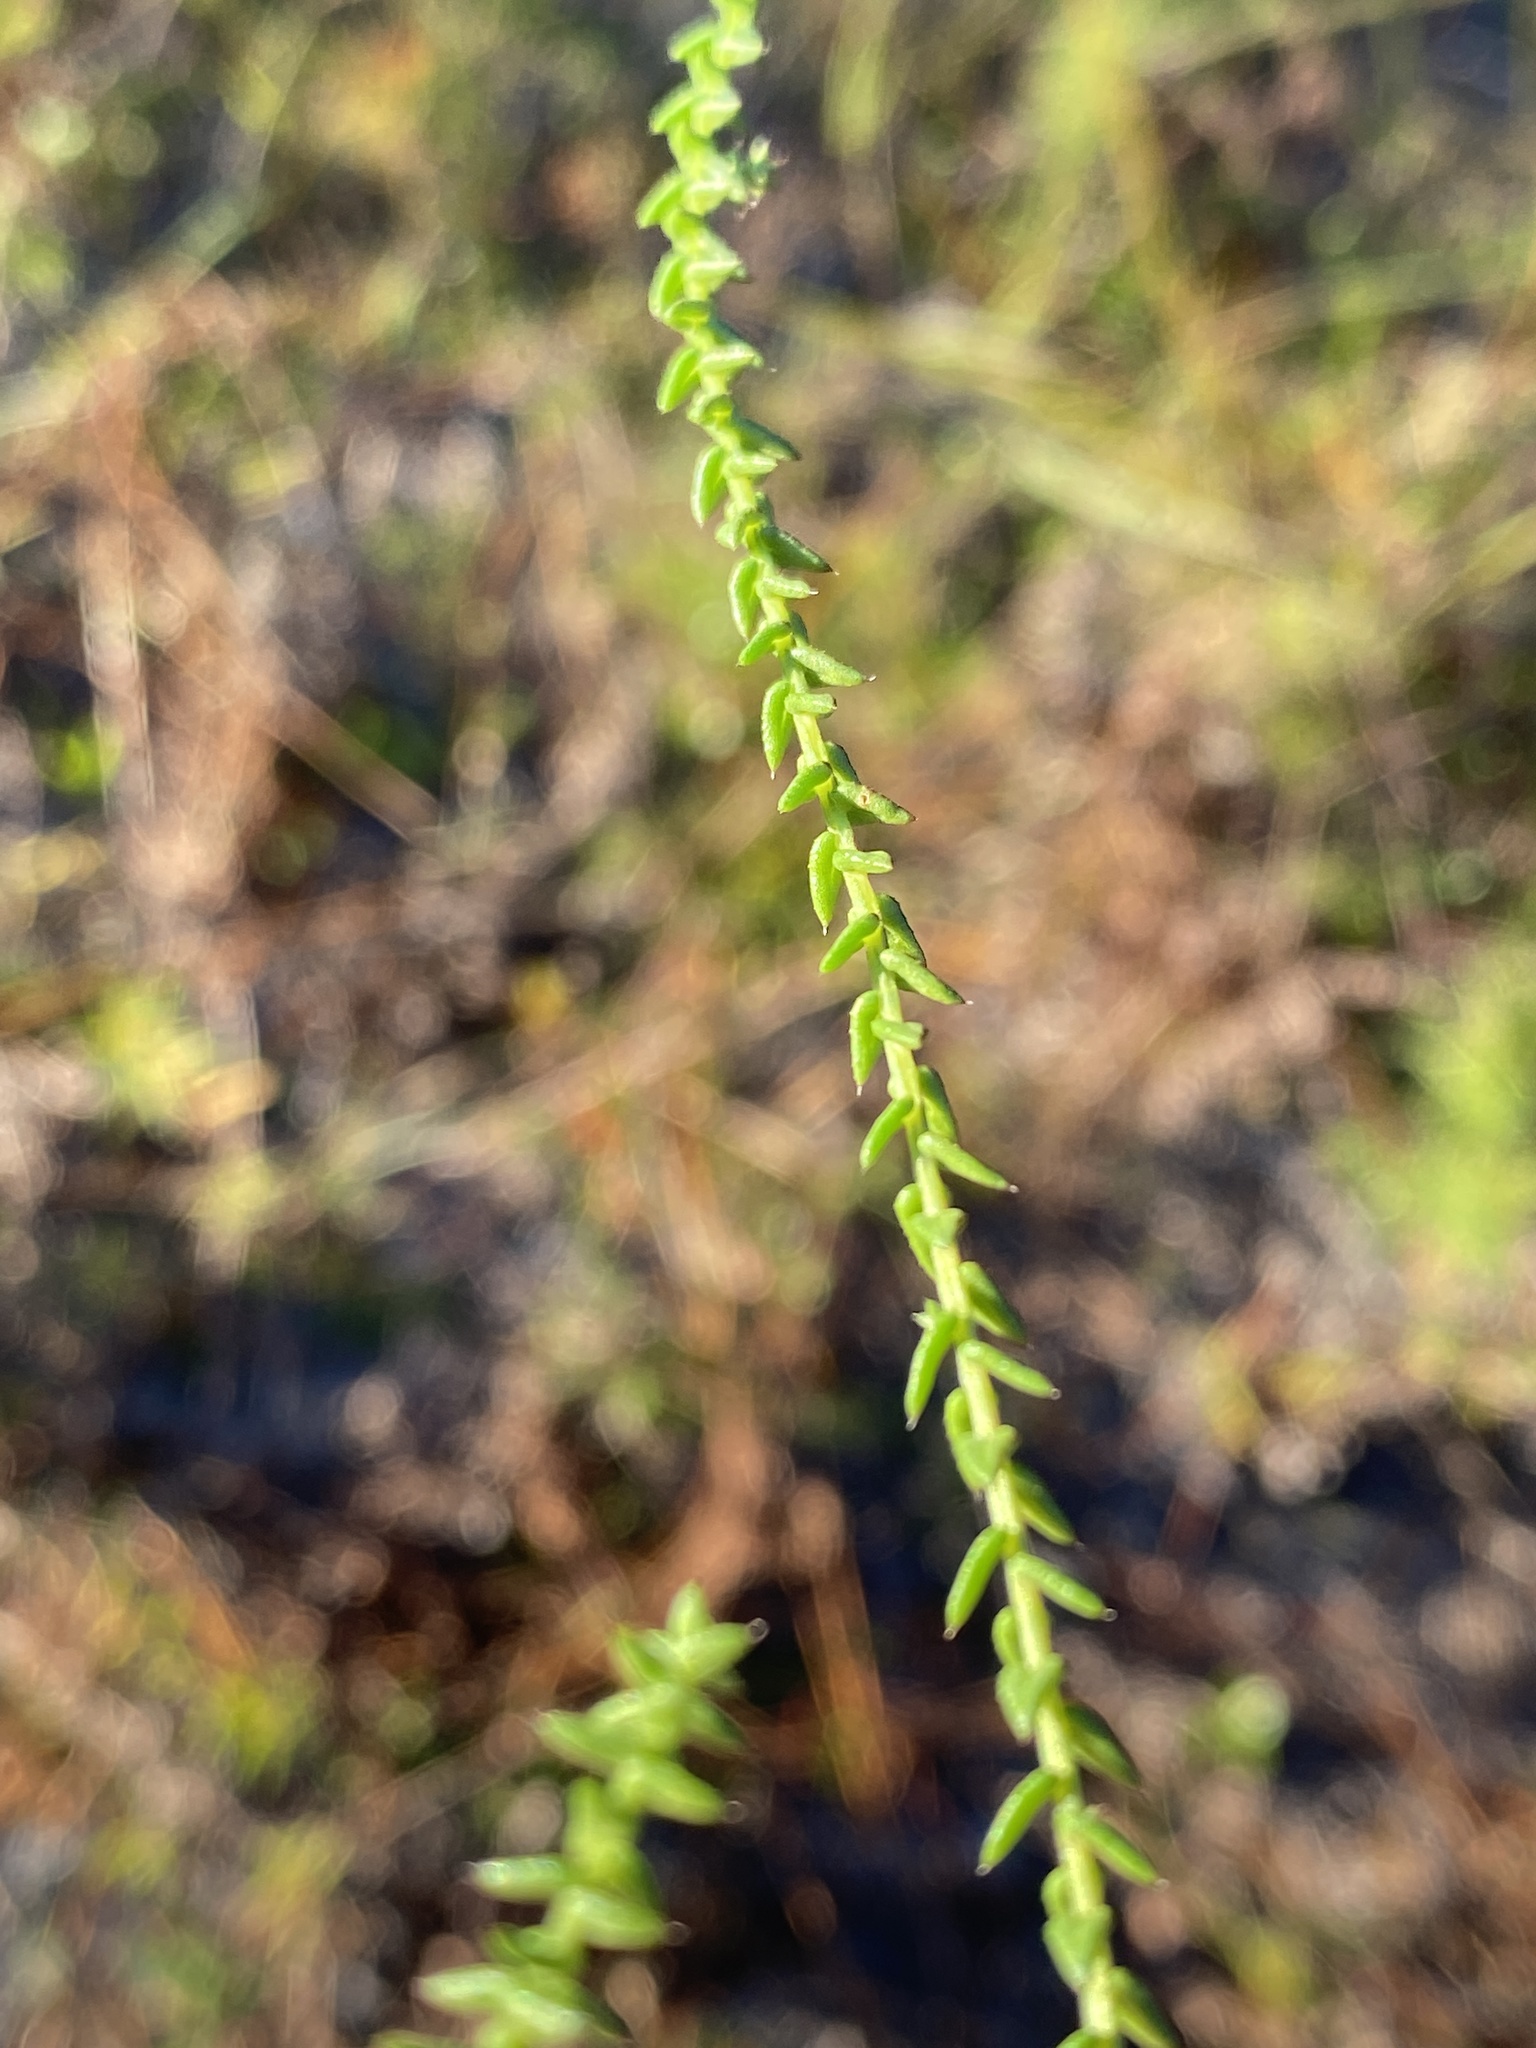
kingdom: Plantae
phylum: Tracheophyta
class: Magnoliopsida
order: Asterales
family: Asteraceae
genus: Symphyotrichum
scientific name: Symphyotrichum walteri
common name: Walter's aster
